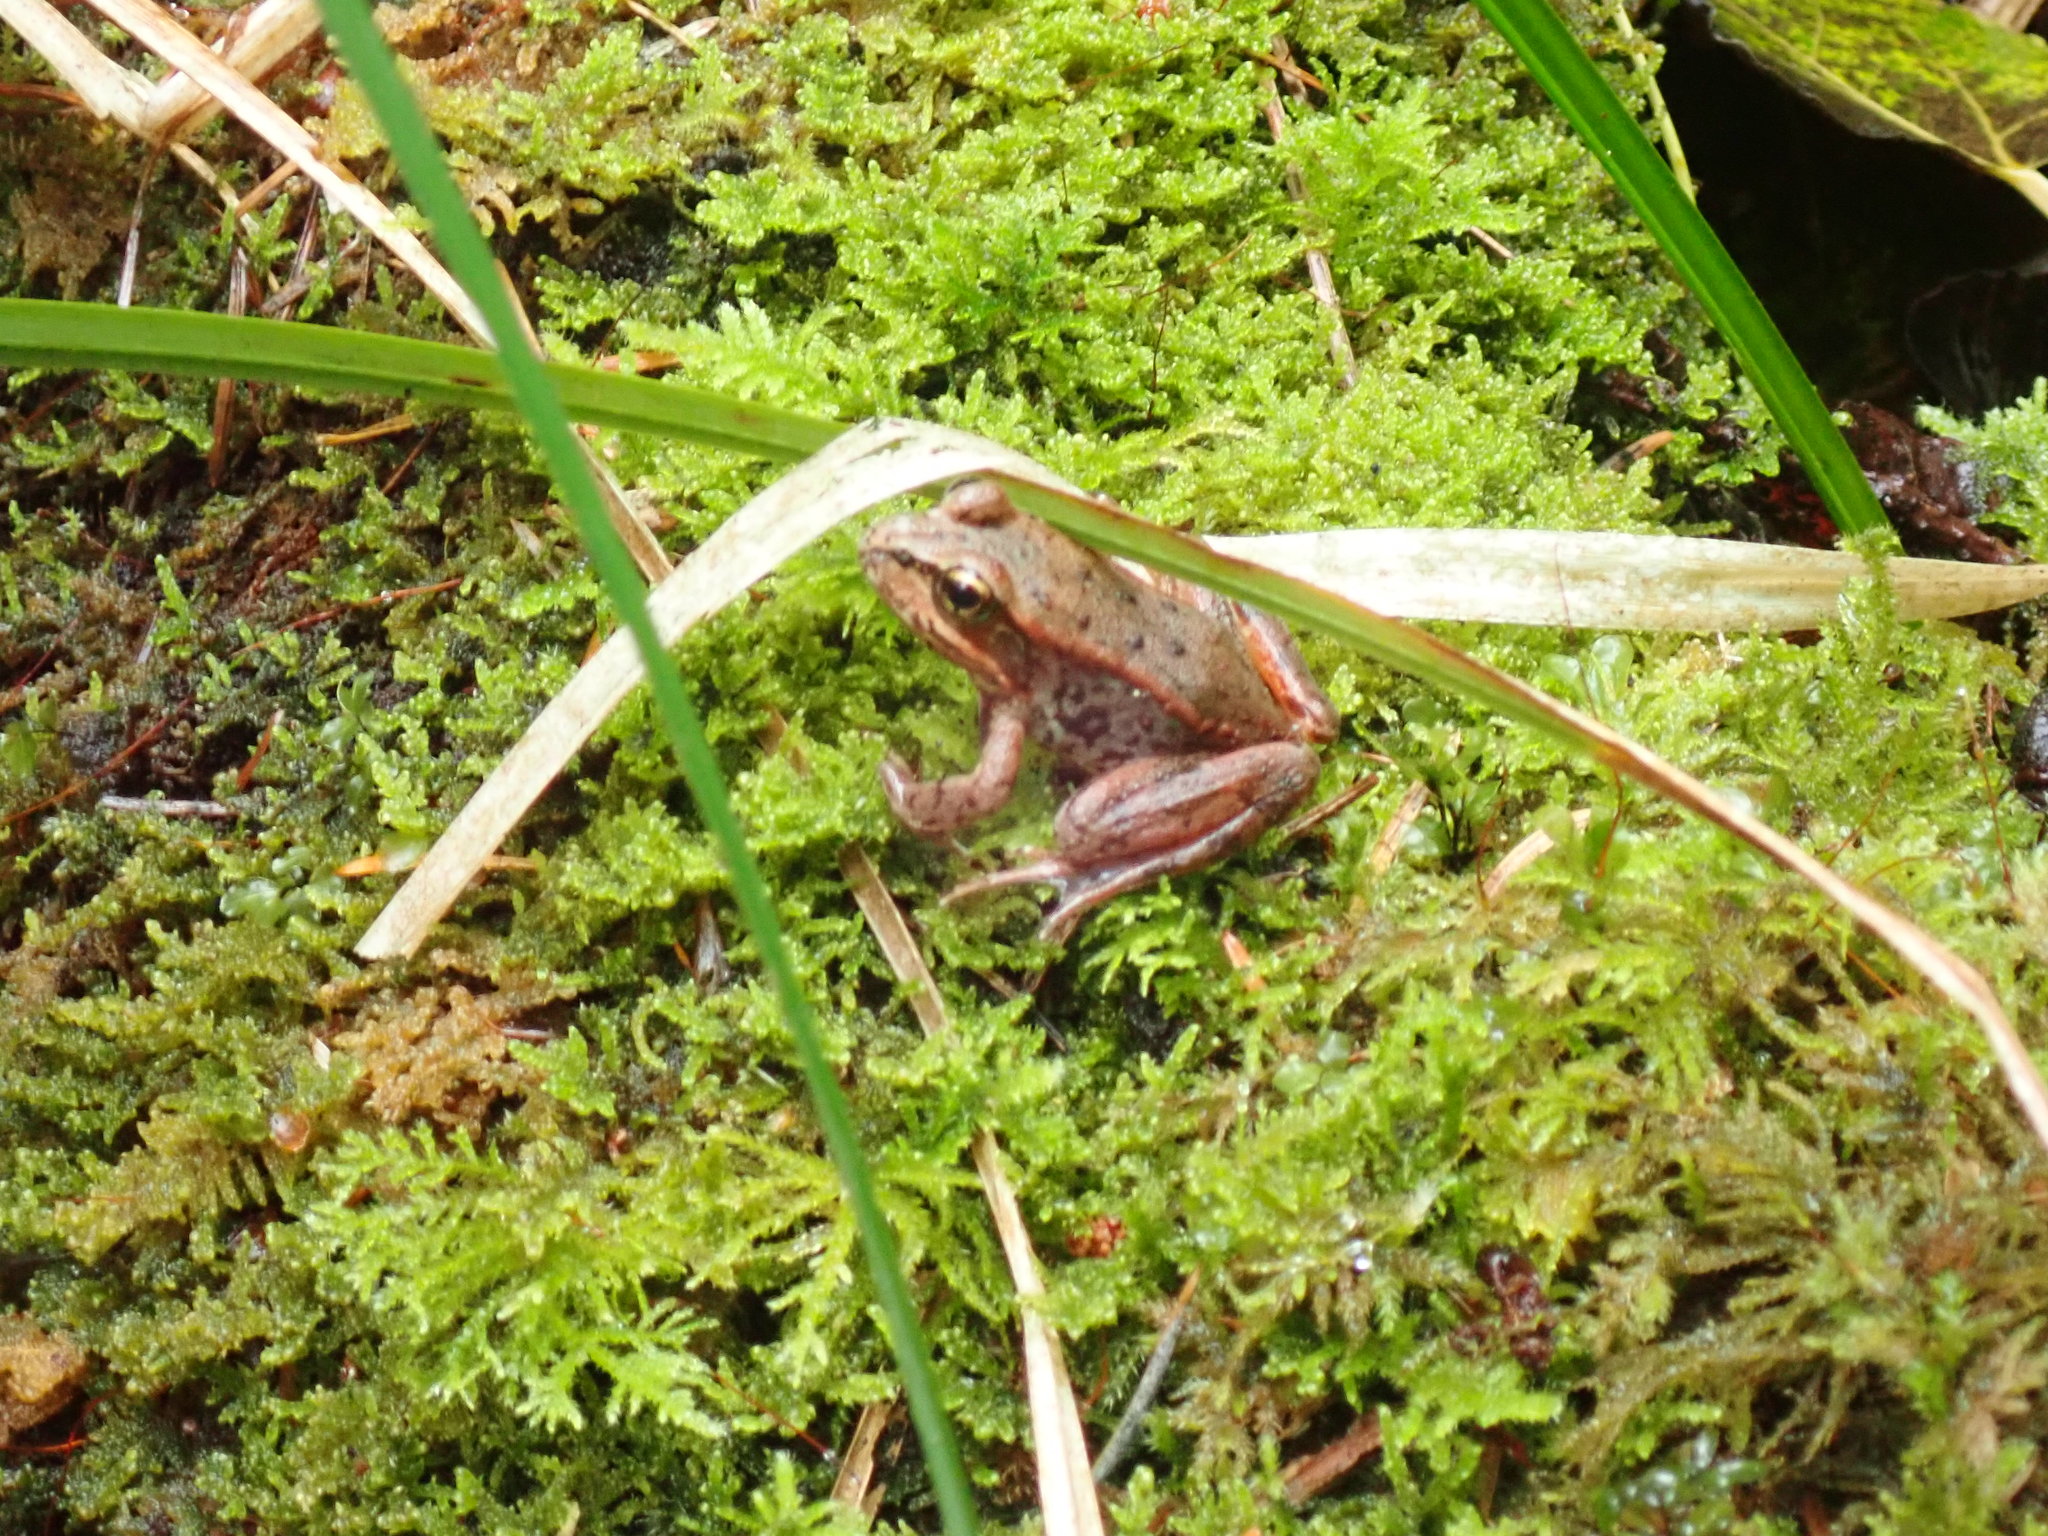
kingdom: Animalia
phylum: Chordata
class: Amphibia
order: Anura
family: Ranidae
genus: Rana
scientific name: Rana aurora
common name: Red-legged frog
